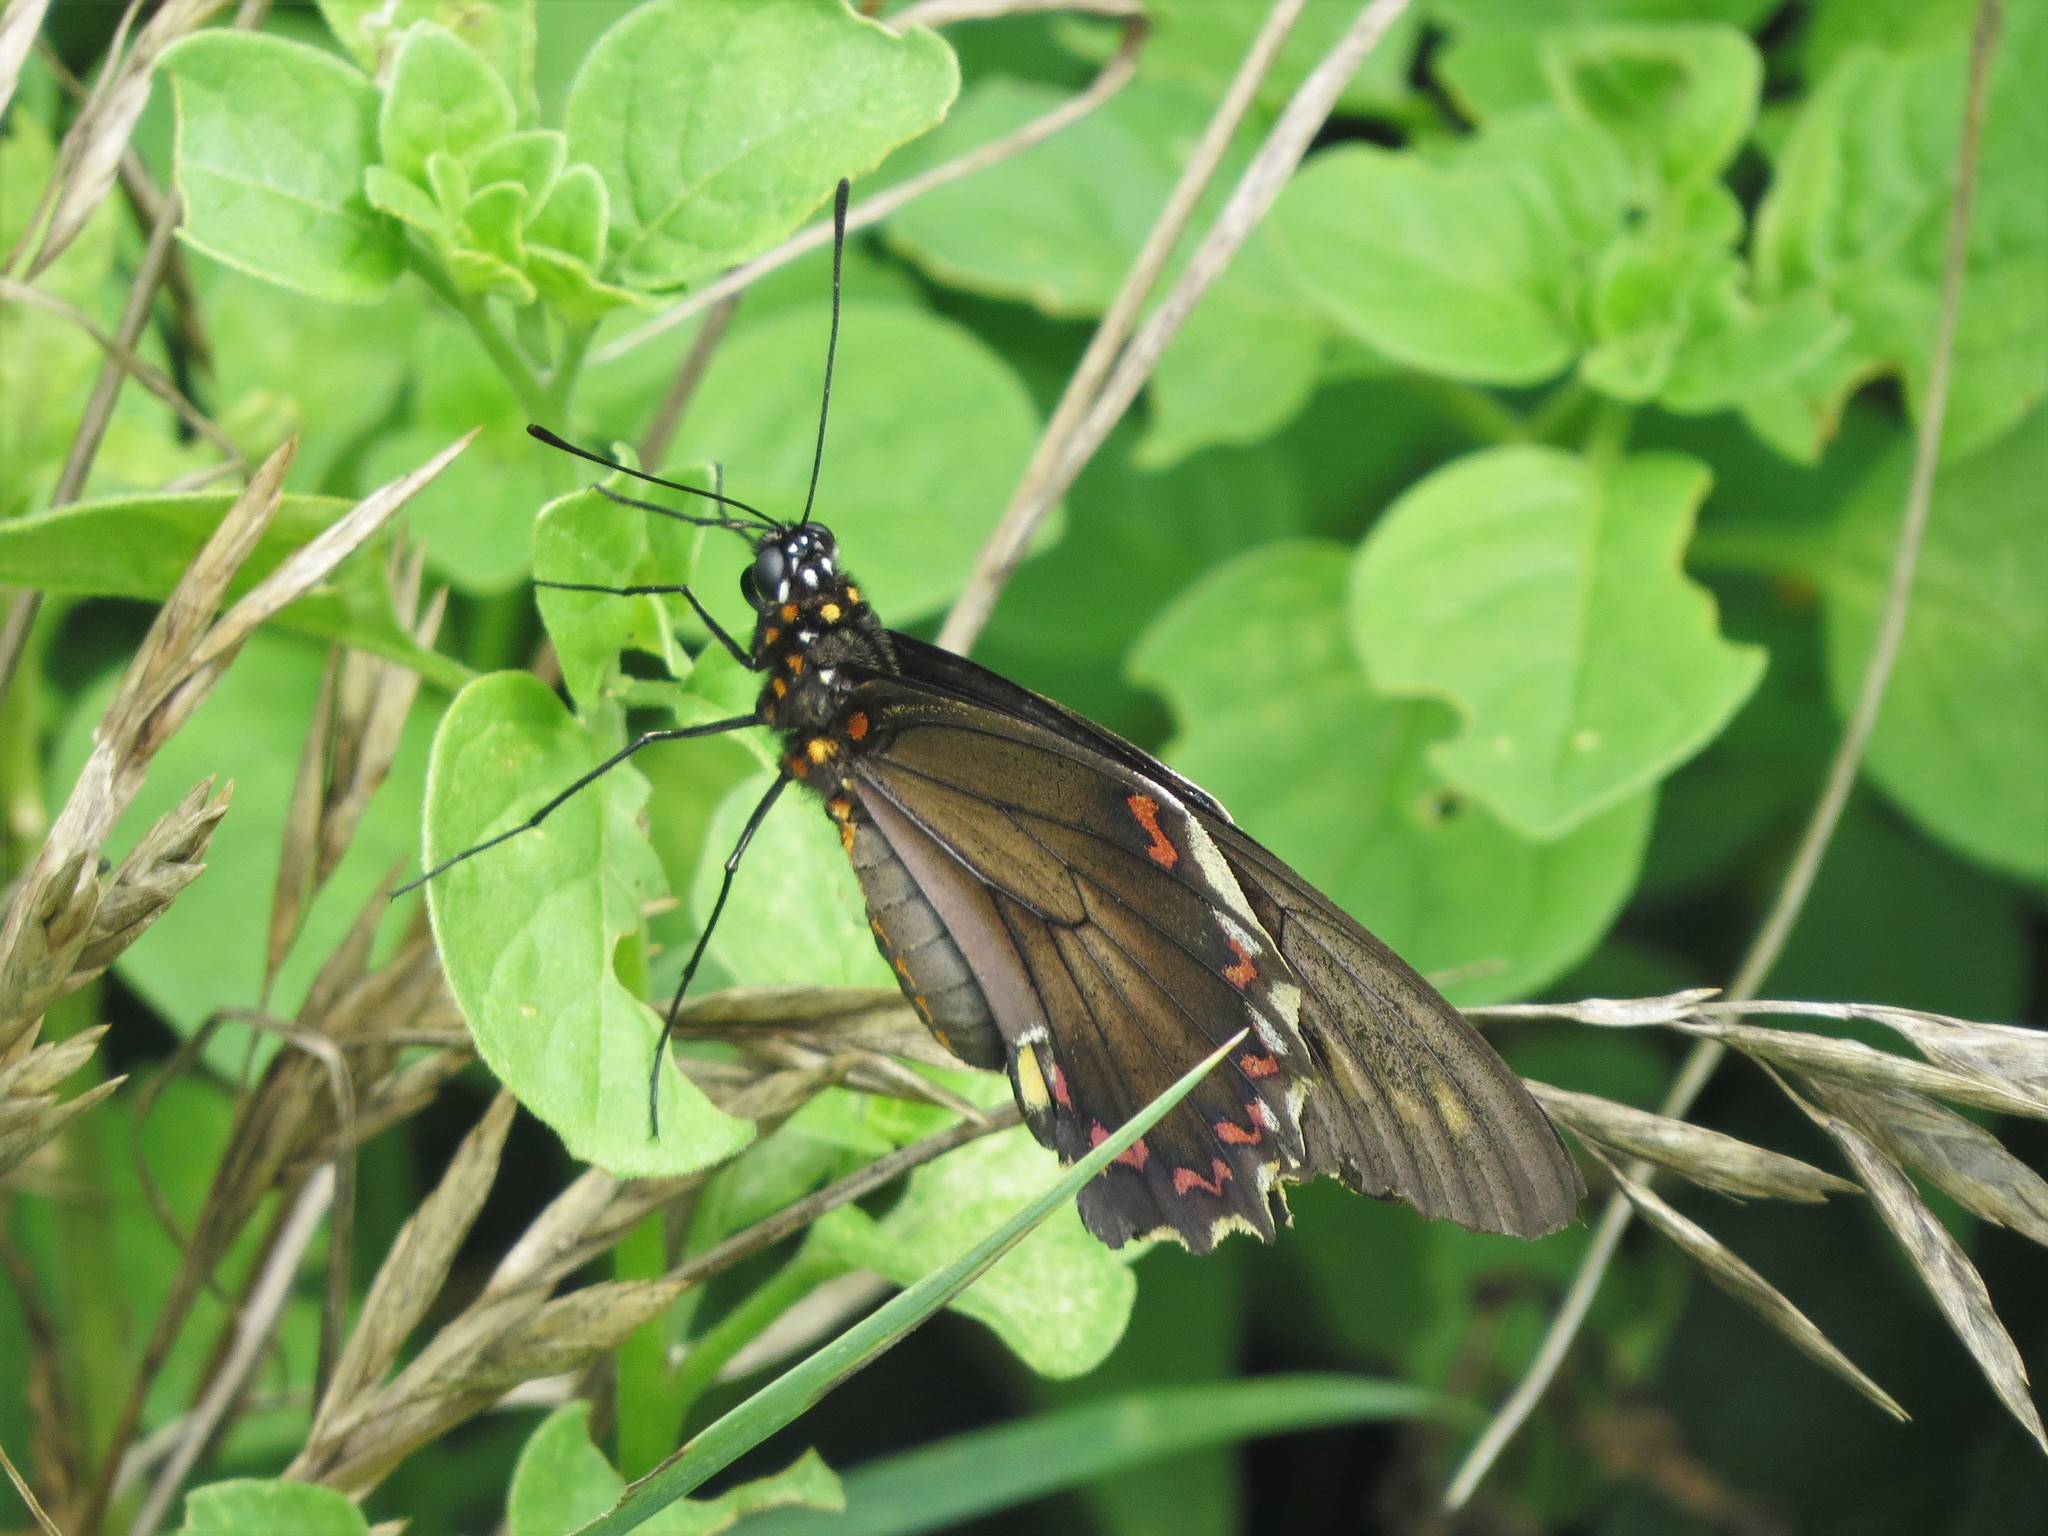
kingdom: Animalia
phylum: Arthropoda
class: Insecta
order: Lepidoptera
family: Papilionidae
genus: Battus
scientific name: Battus polydamas
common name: Polydamas swallowtail
